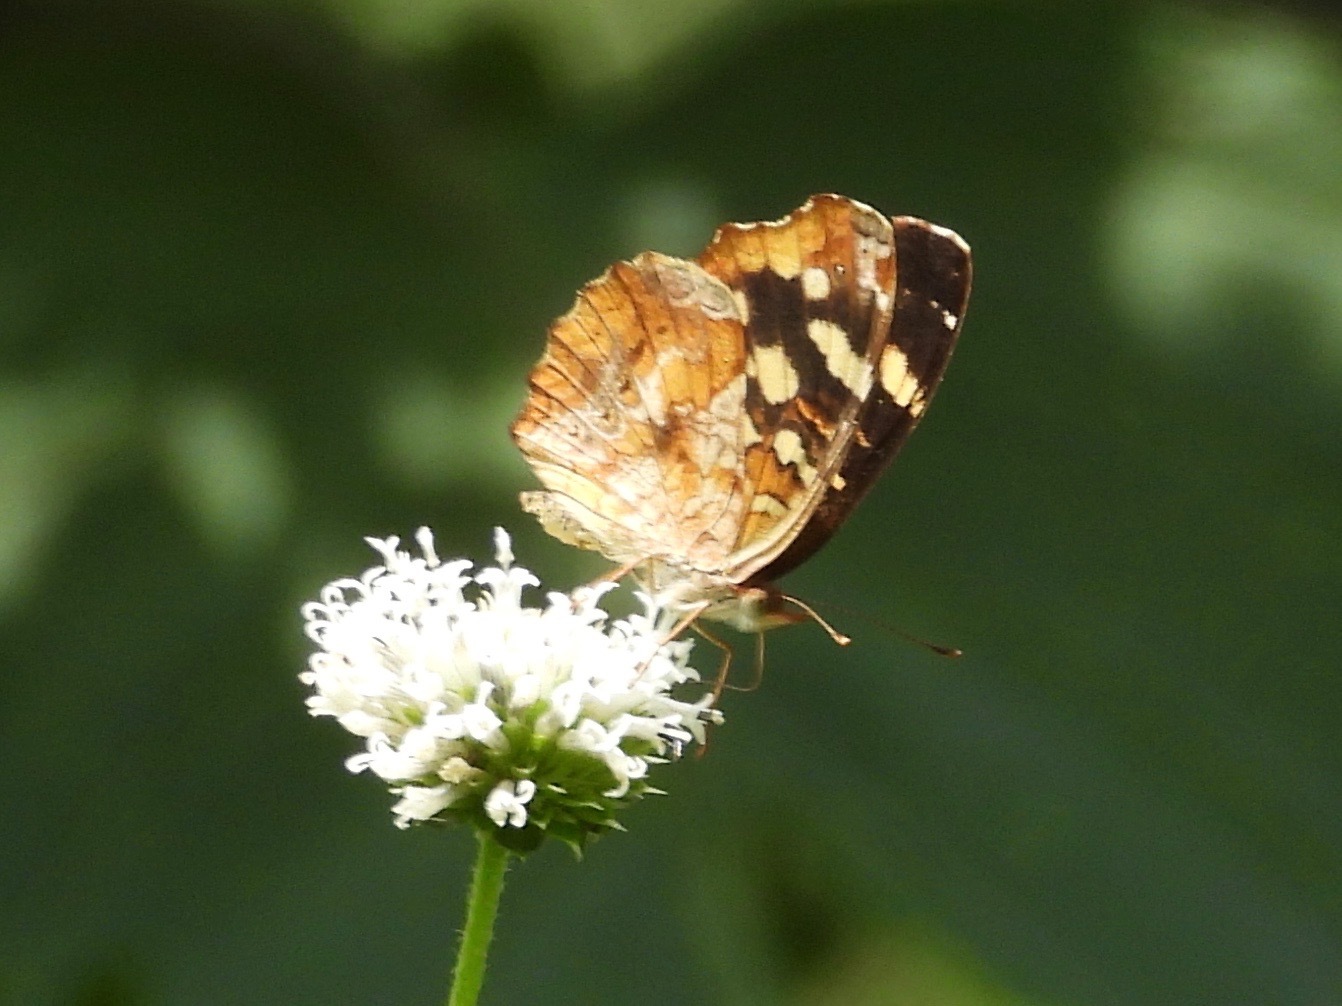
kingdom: Animalia
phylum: Arthropoda
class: Insecta
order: Lepidoptera
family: Nymphalidae
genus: Anthanassa
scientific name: Anthanassa drusilla
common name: Orange-patched crescent
